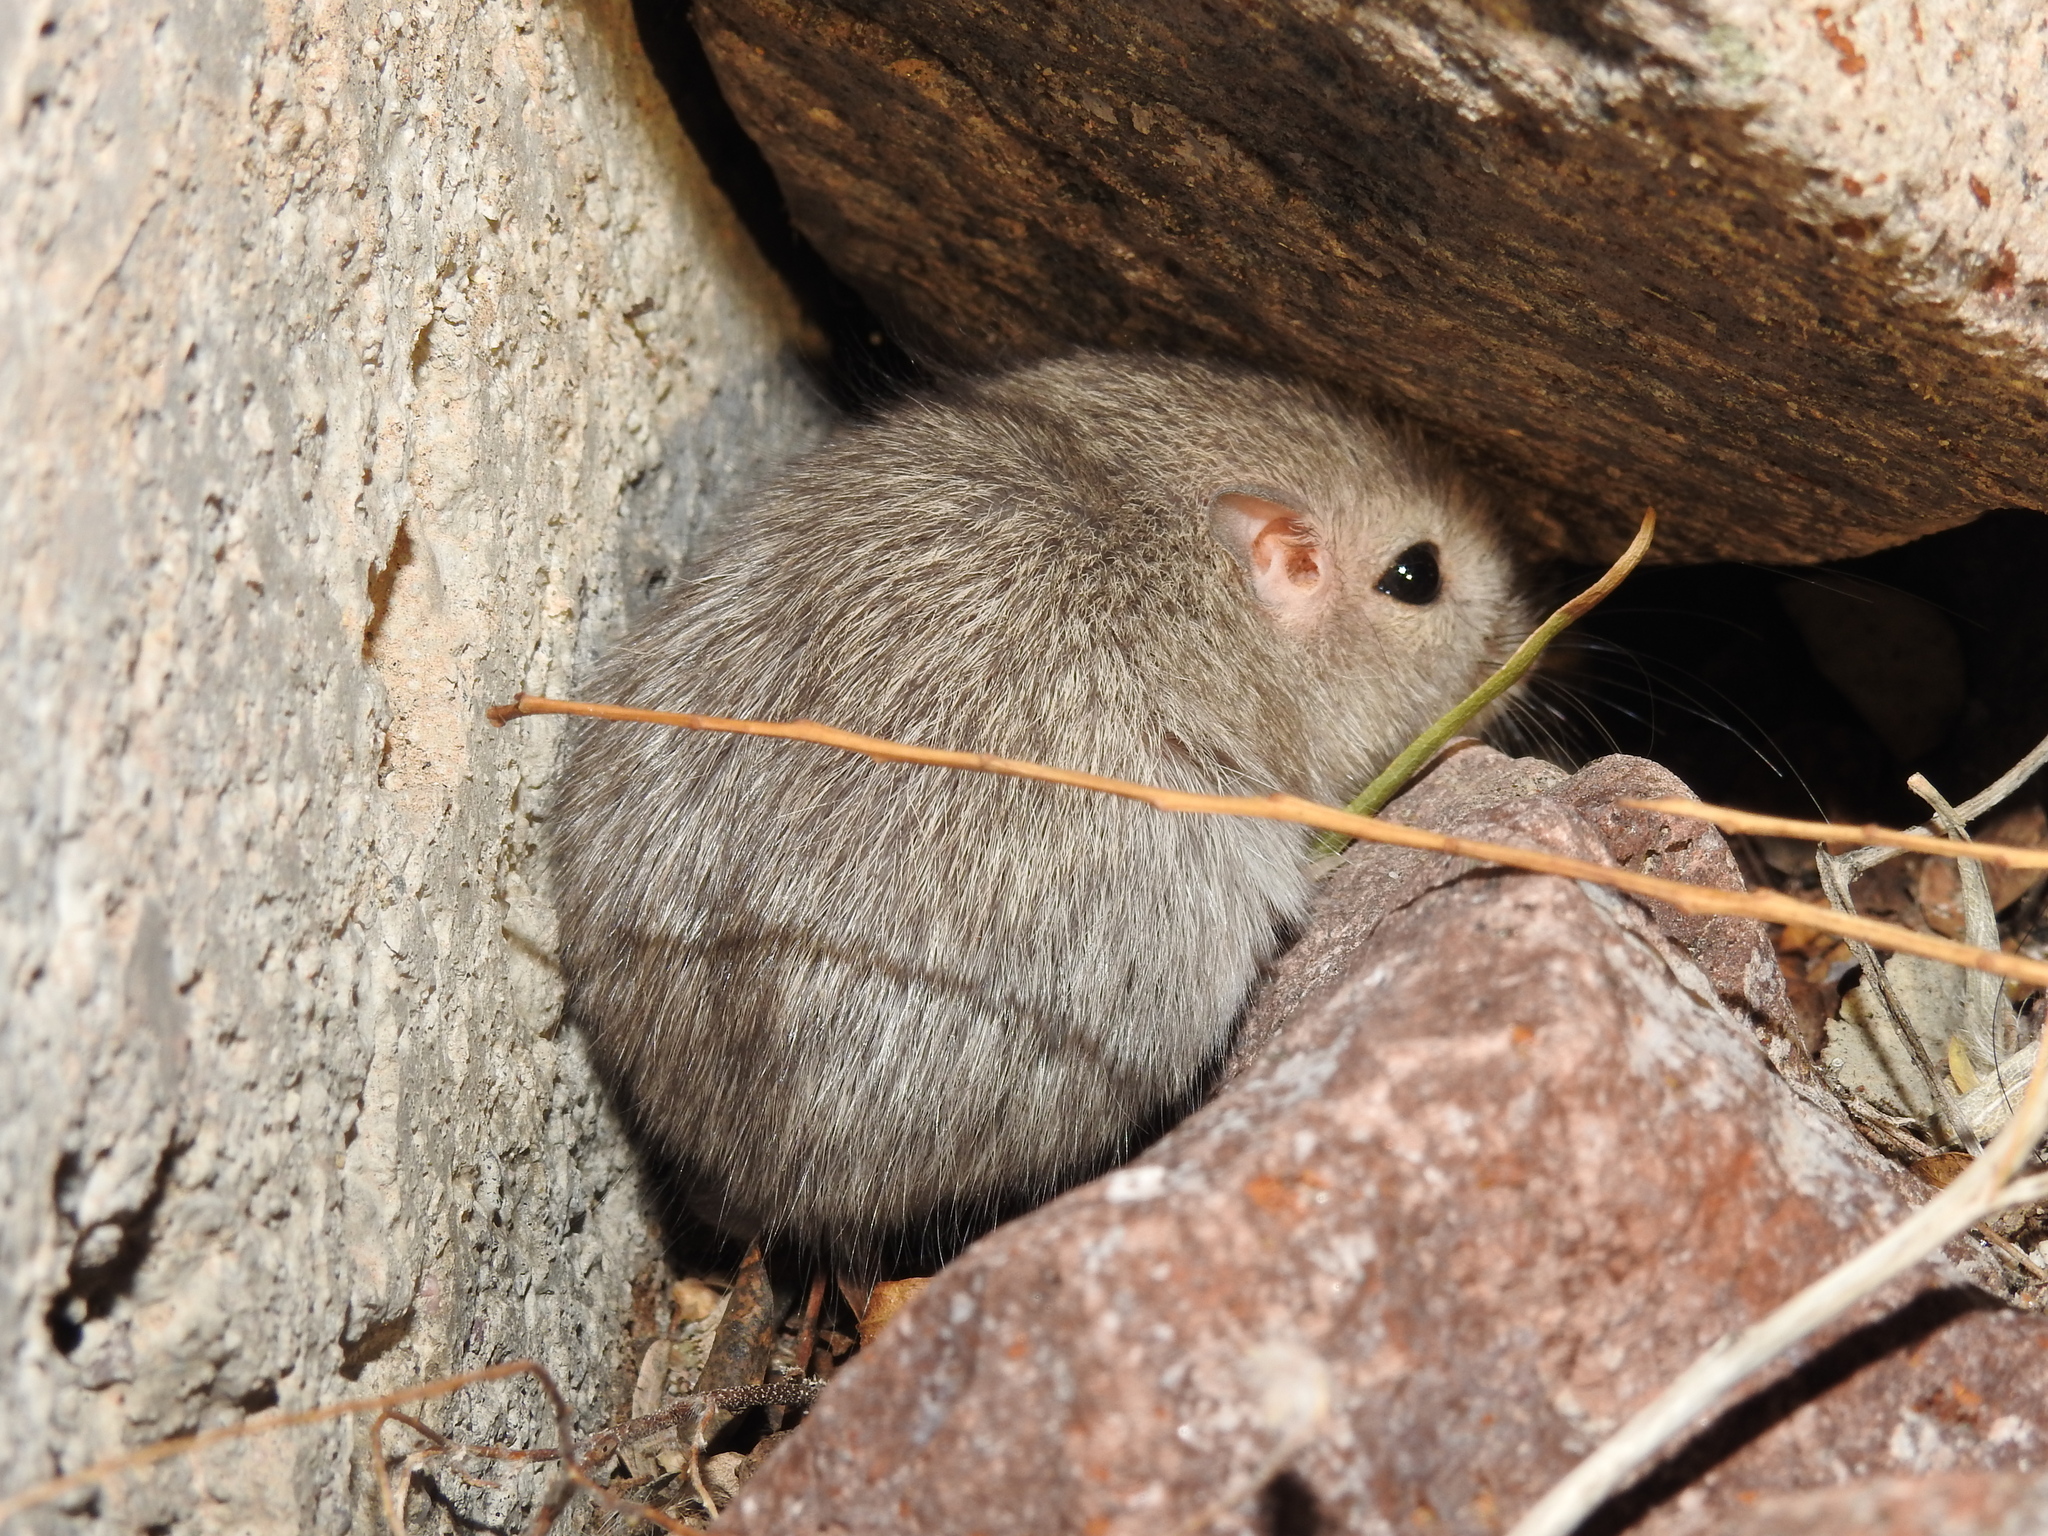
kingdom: Animalia
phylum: Chordata
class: Mammalia
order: Rodentia
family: Heteromyidae
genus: Chaetodipus
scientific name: Chaetodipus penicillatus
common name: Desert pocket mouse
